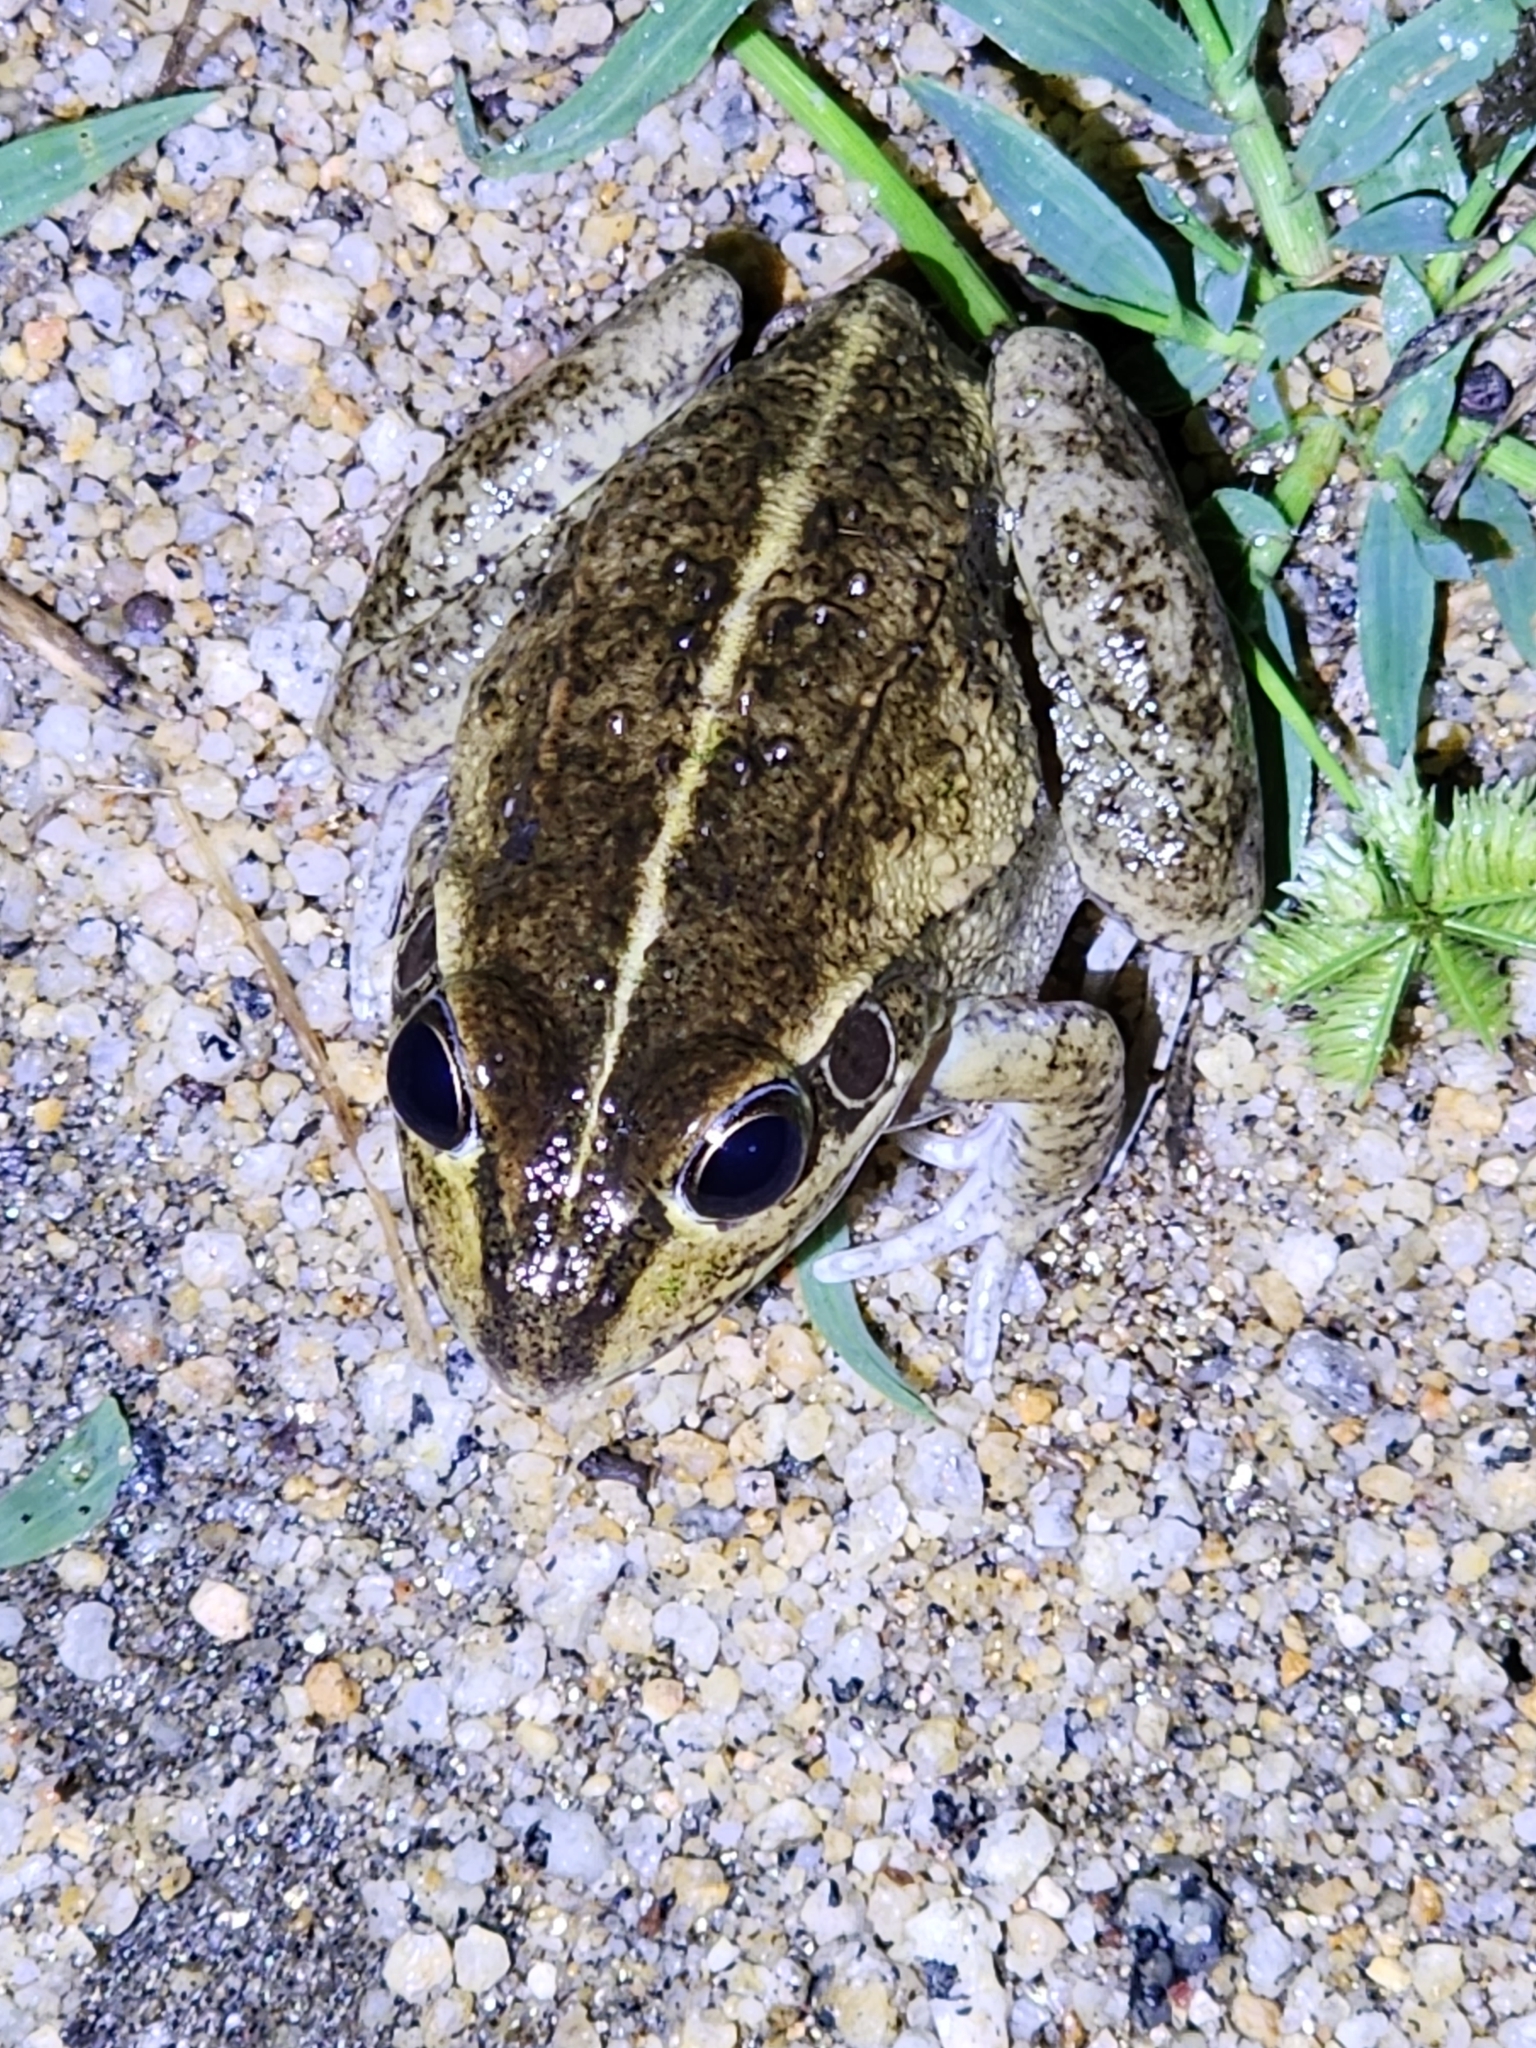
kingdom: Animalia
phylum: Chordata
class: Amphibia
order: Anura
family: Pelodryadidae
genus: Ranoidea
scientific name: Ranoidea alboguttata
